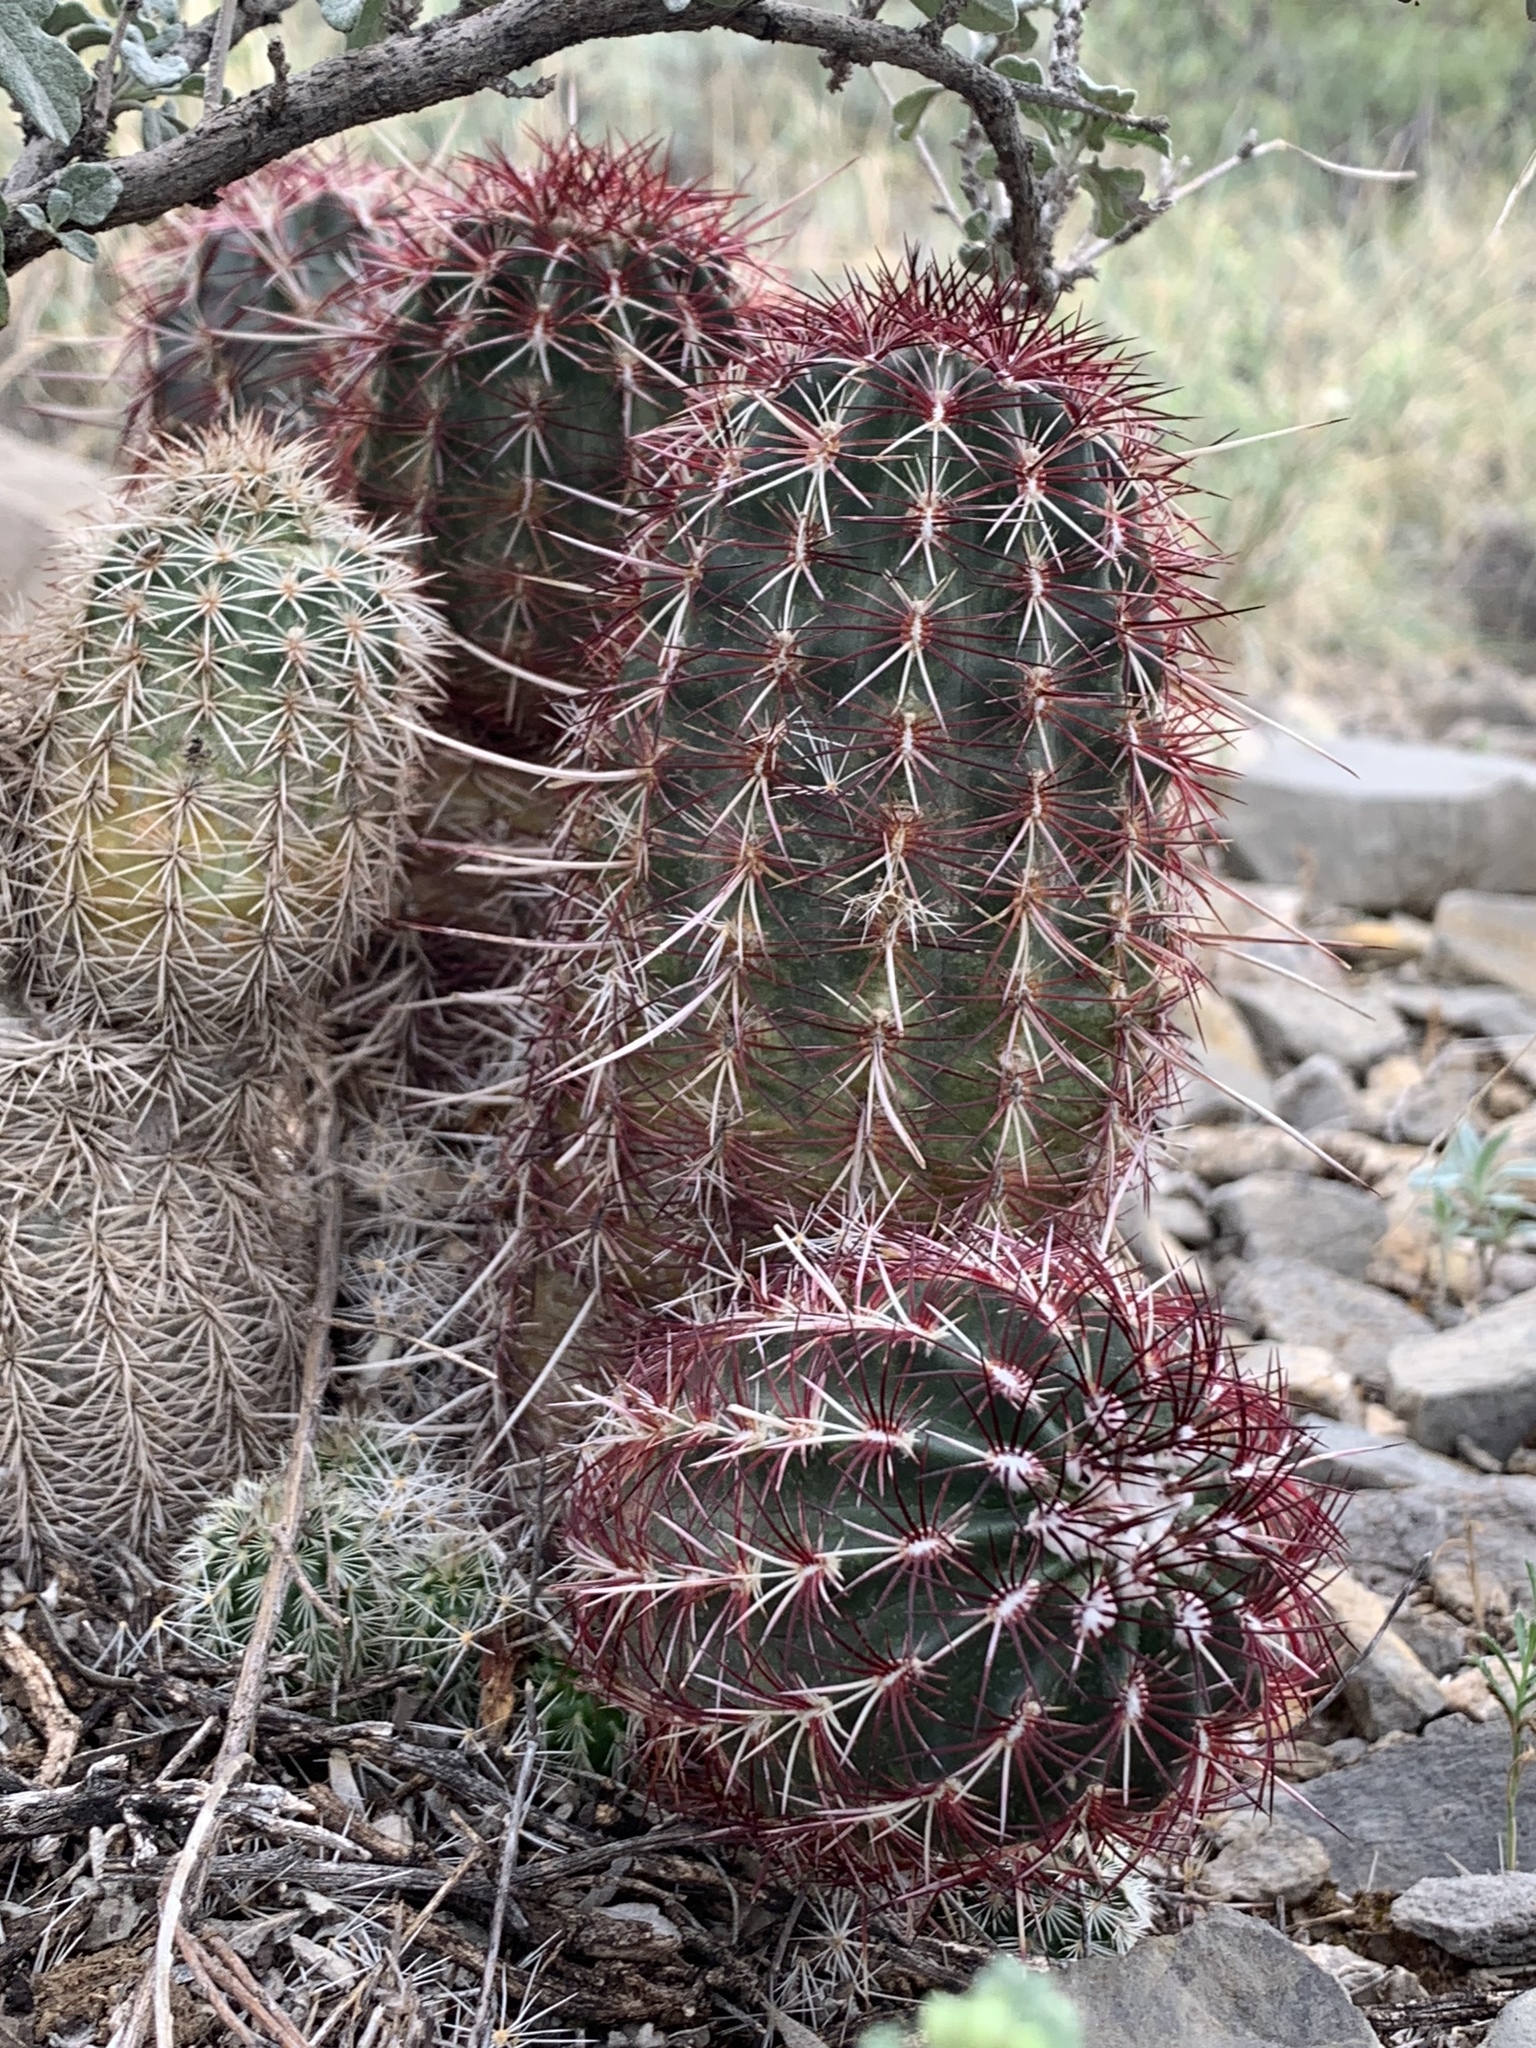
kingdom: Plantae
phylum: Tracheophyta
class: Magnoliopsida
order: Caryophyllales
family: Cactaceae
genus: Echinocereus
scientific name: Echinocereus viridiflorus
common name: Nylon hedgehog cactus
